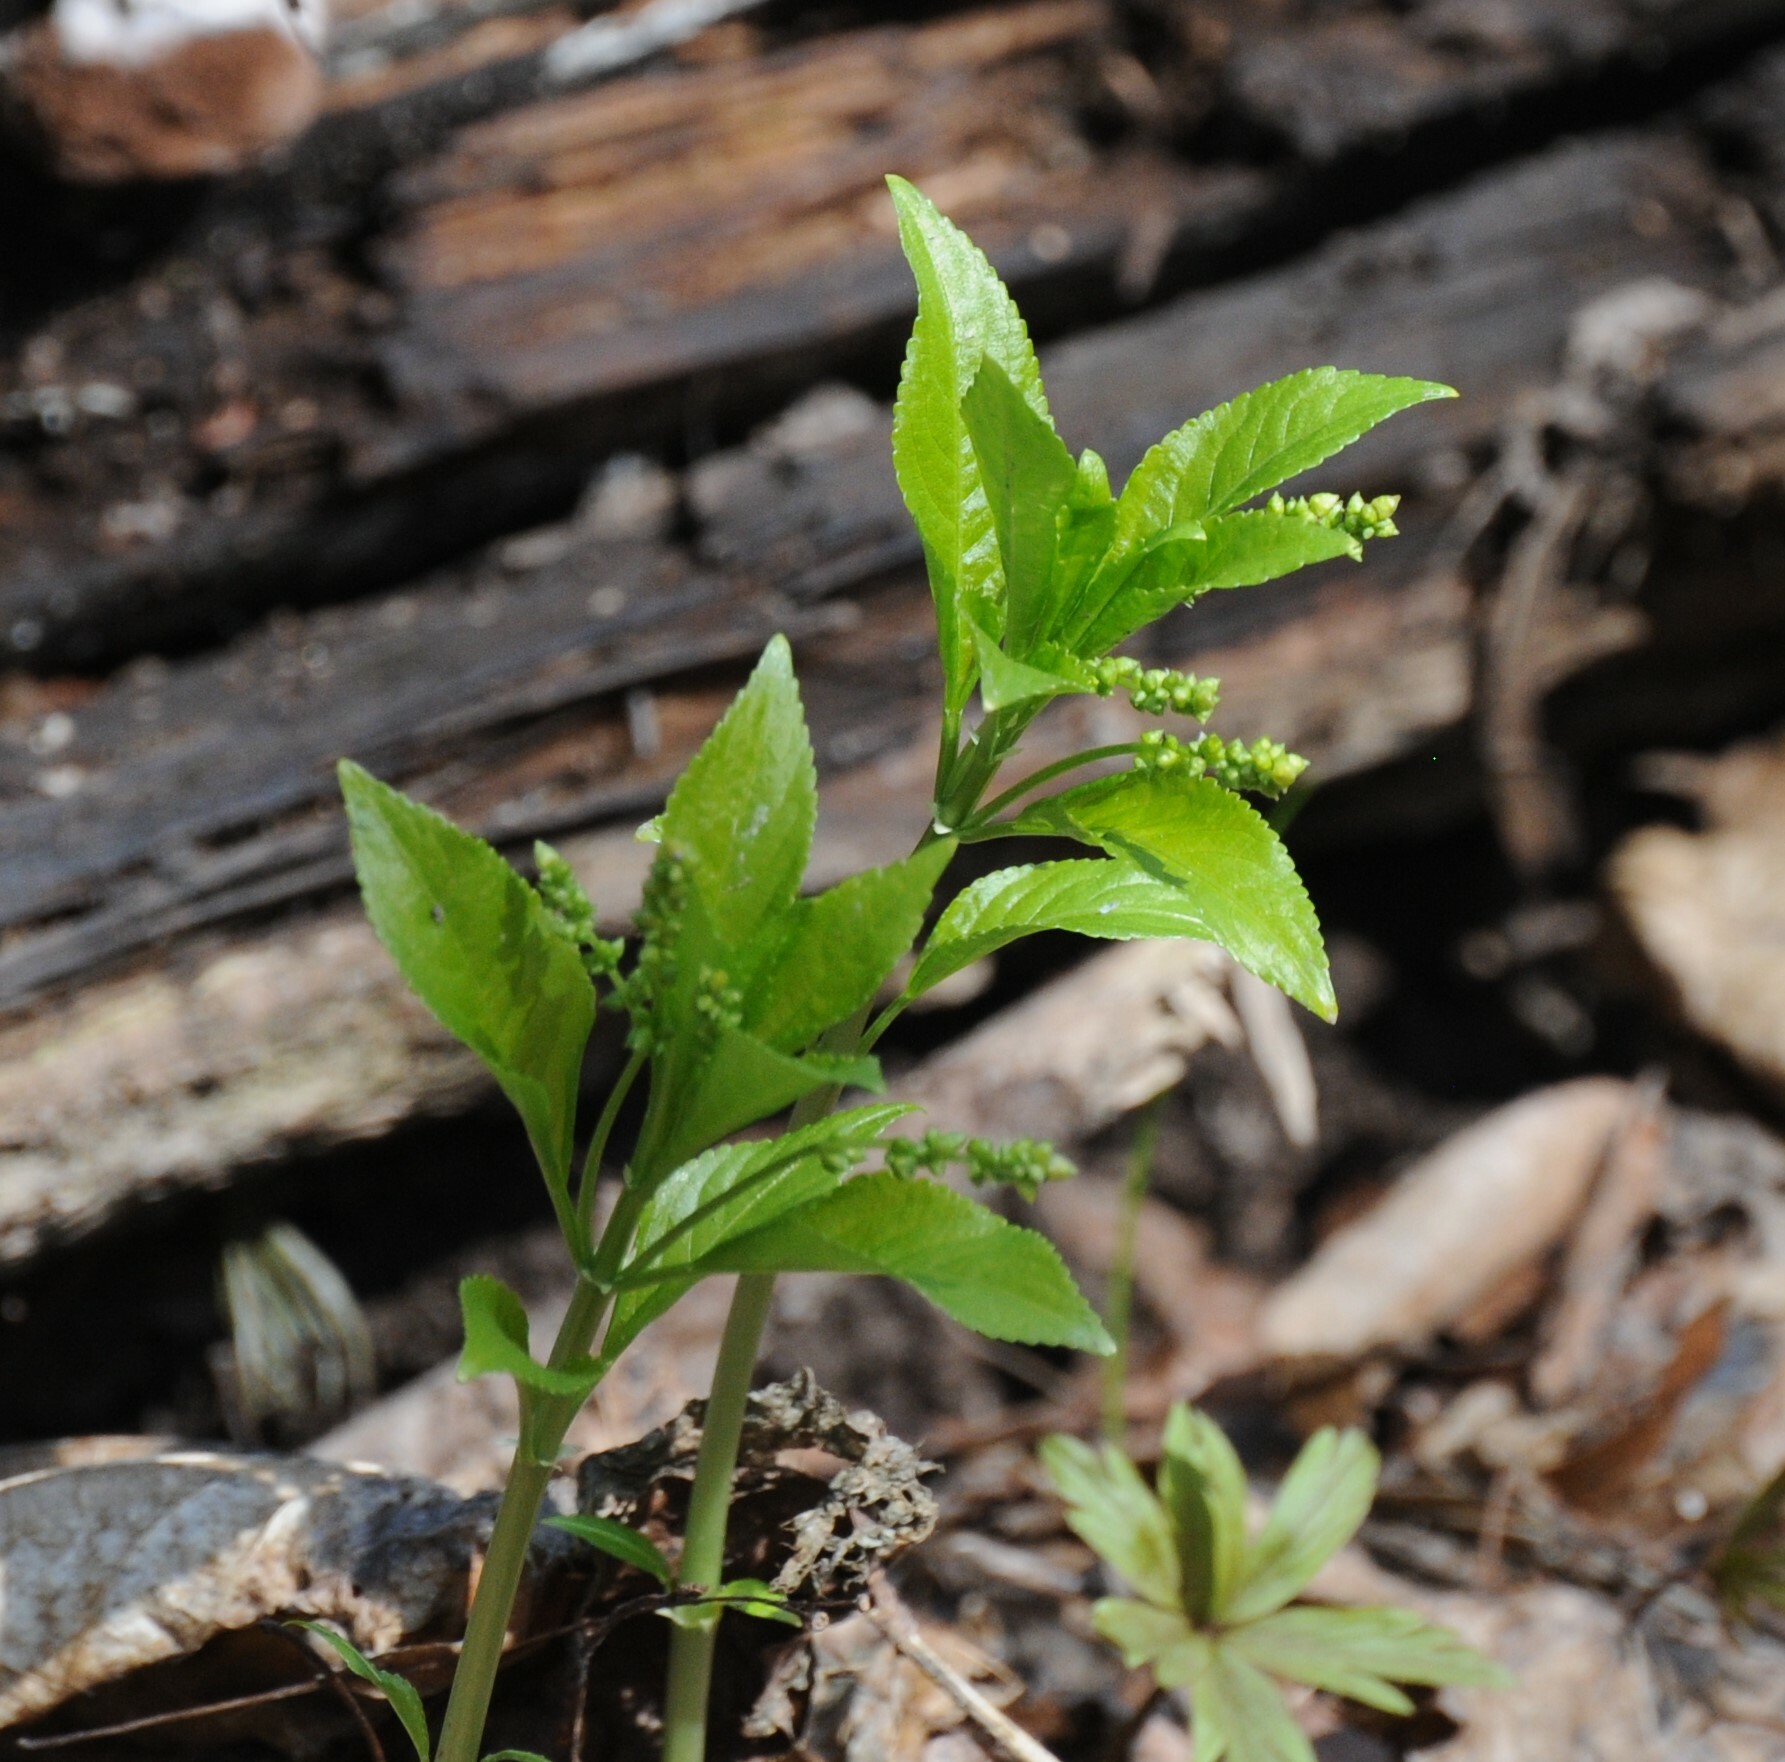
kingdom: Plantae
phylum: Tracheophyta
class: Magnoliopsida
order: Malpighiales
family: Euphorbiaceae
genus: Mercurialis
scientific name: Mercurialis perennis
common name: Dog mercury
